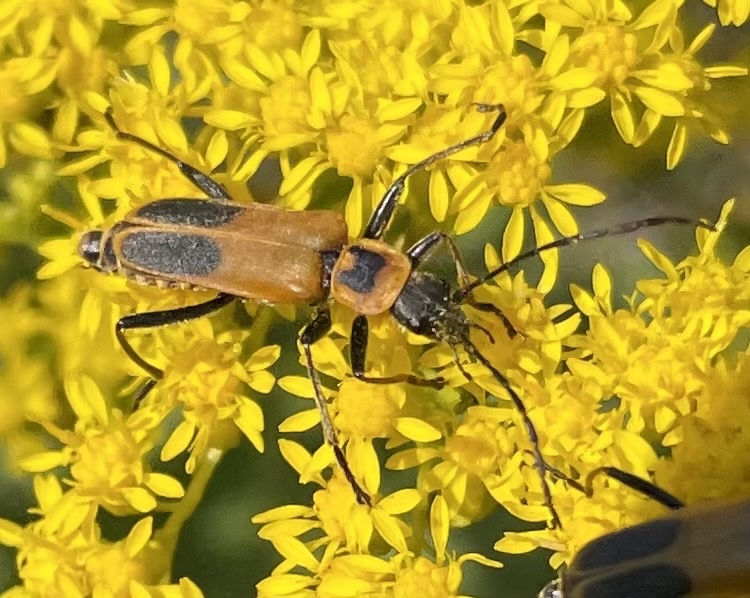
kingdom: Animalia
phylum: Arthropoda
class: Insecta
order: Coleoptera
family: Cantharidae
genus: Chauliognathus
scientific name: Chauliognathus pensylvanicus
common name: Goldenrod soldier beetle
